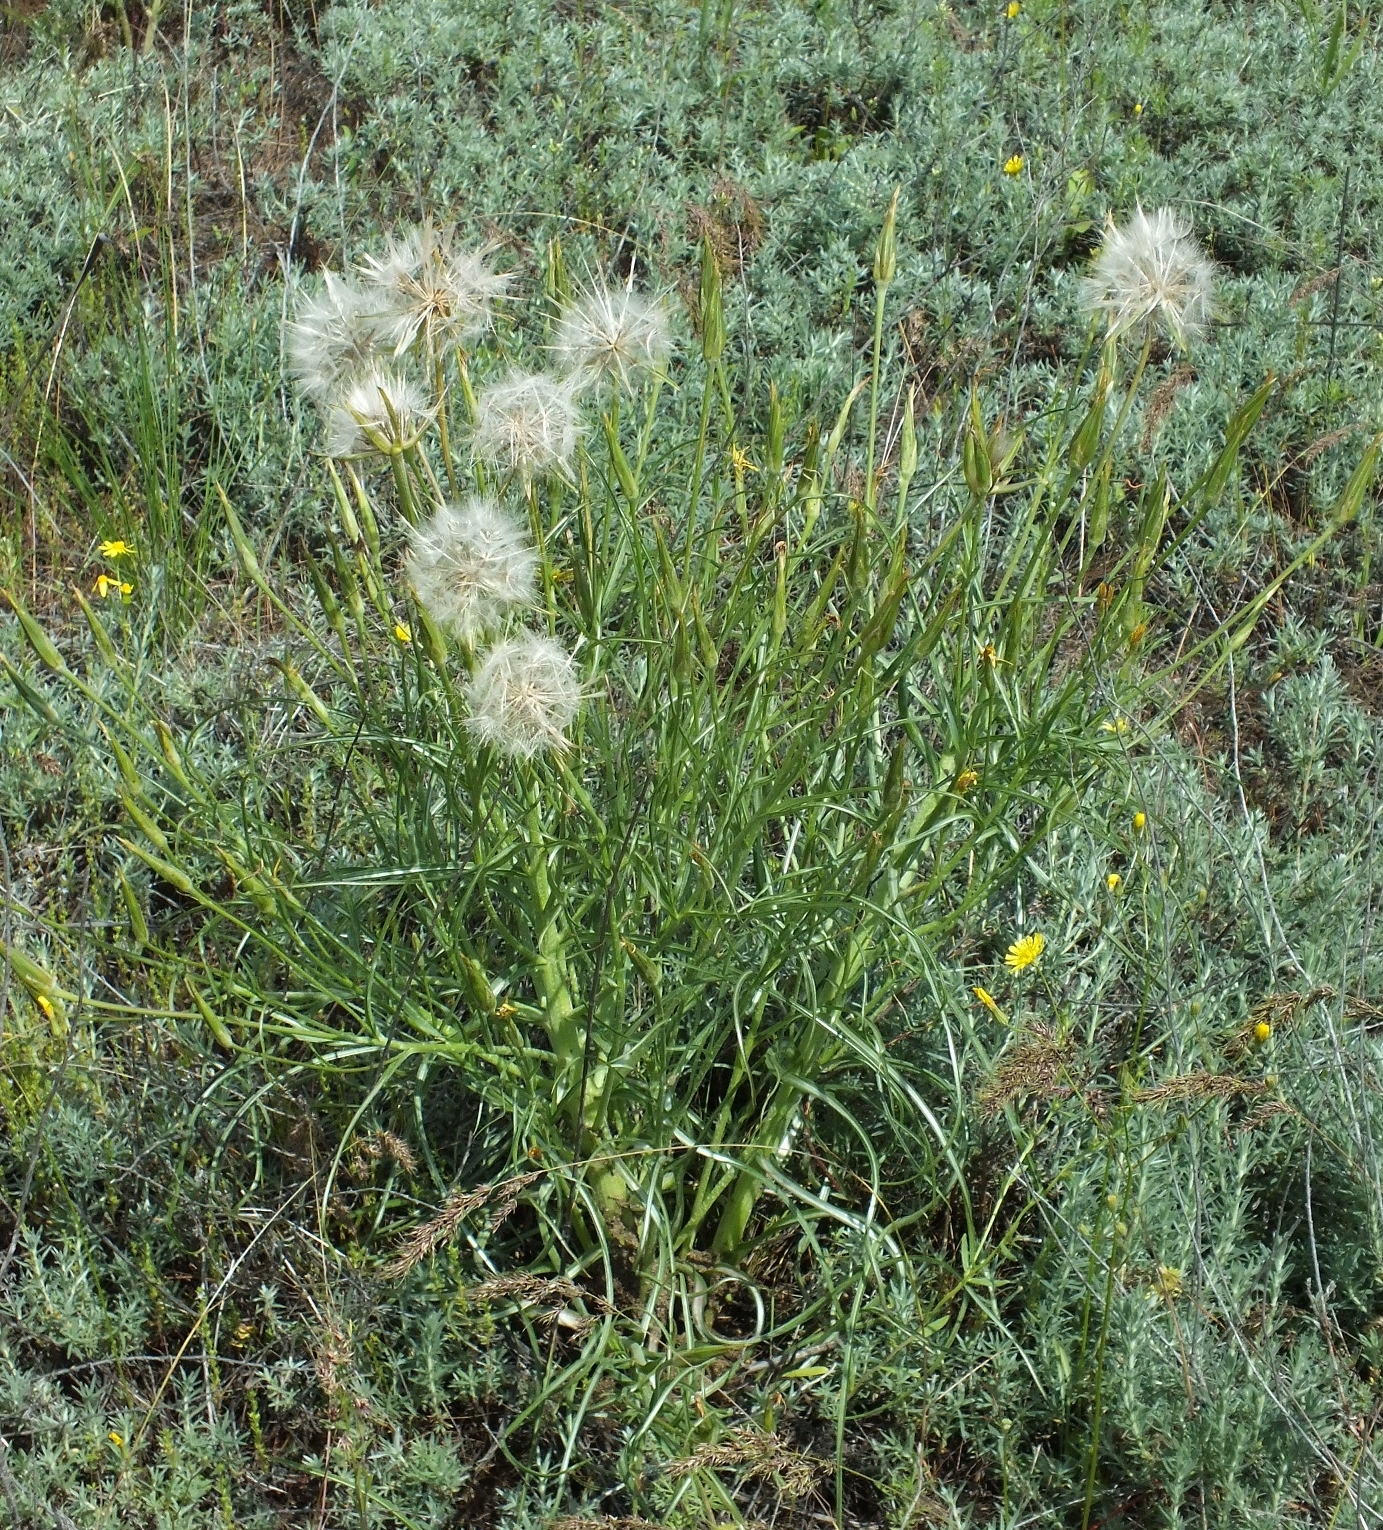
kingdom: Plantae
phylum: Tracheophyta
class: Magnoliopsida
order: Asterales
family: Asteraceae
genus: Candollea
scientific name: Candollea mollis
